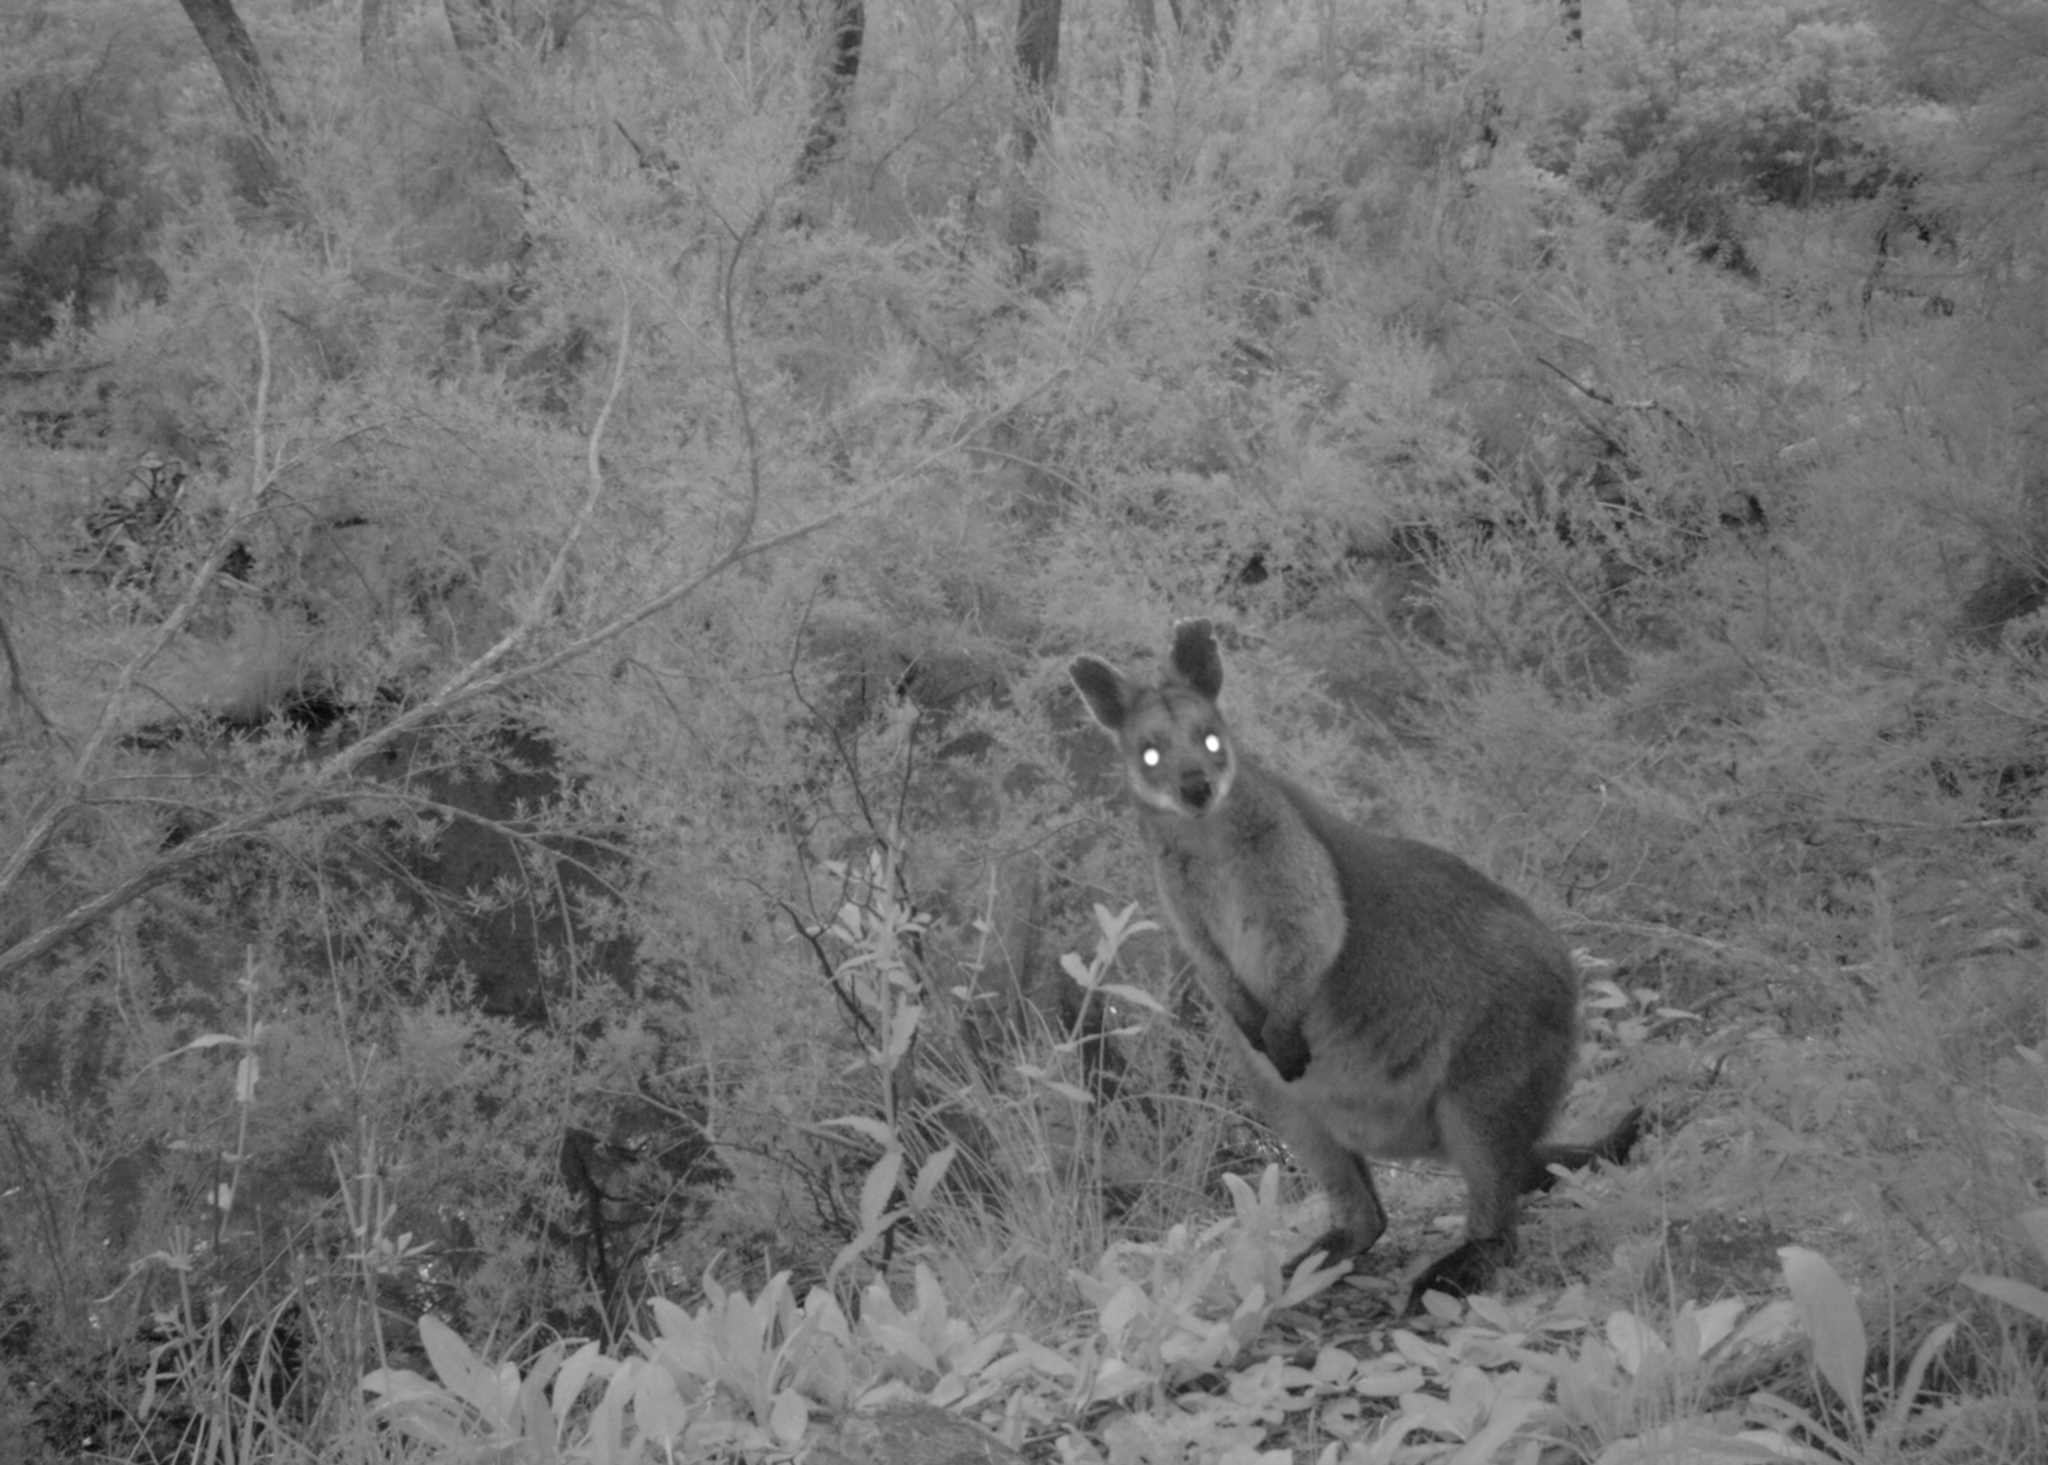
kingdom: Animalia
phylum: Chordata
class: Mammalia
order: Diprotodontia
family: Macropodidae
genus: Wallabia
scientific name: Wallabia bicolor
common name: Swamp wallaby
